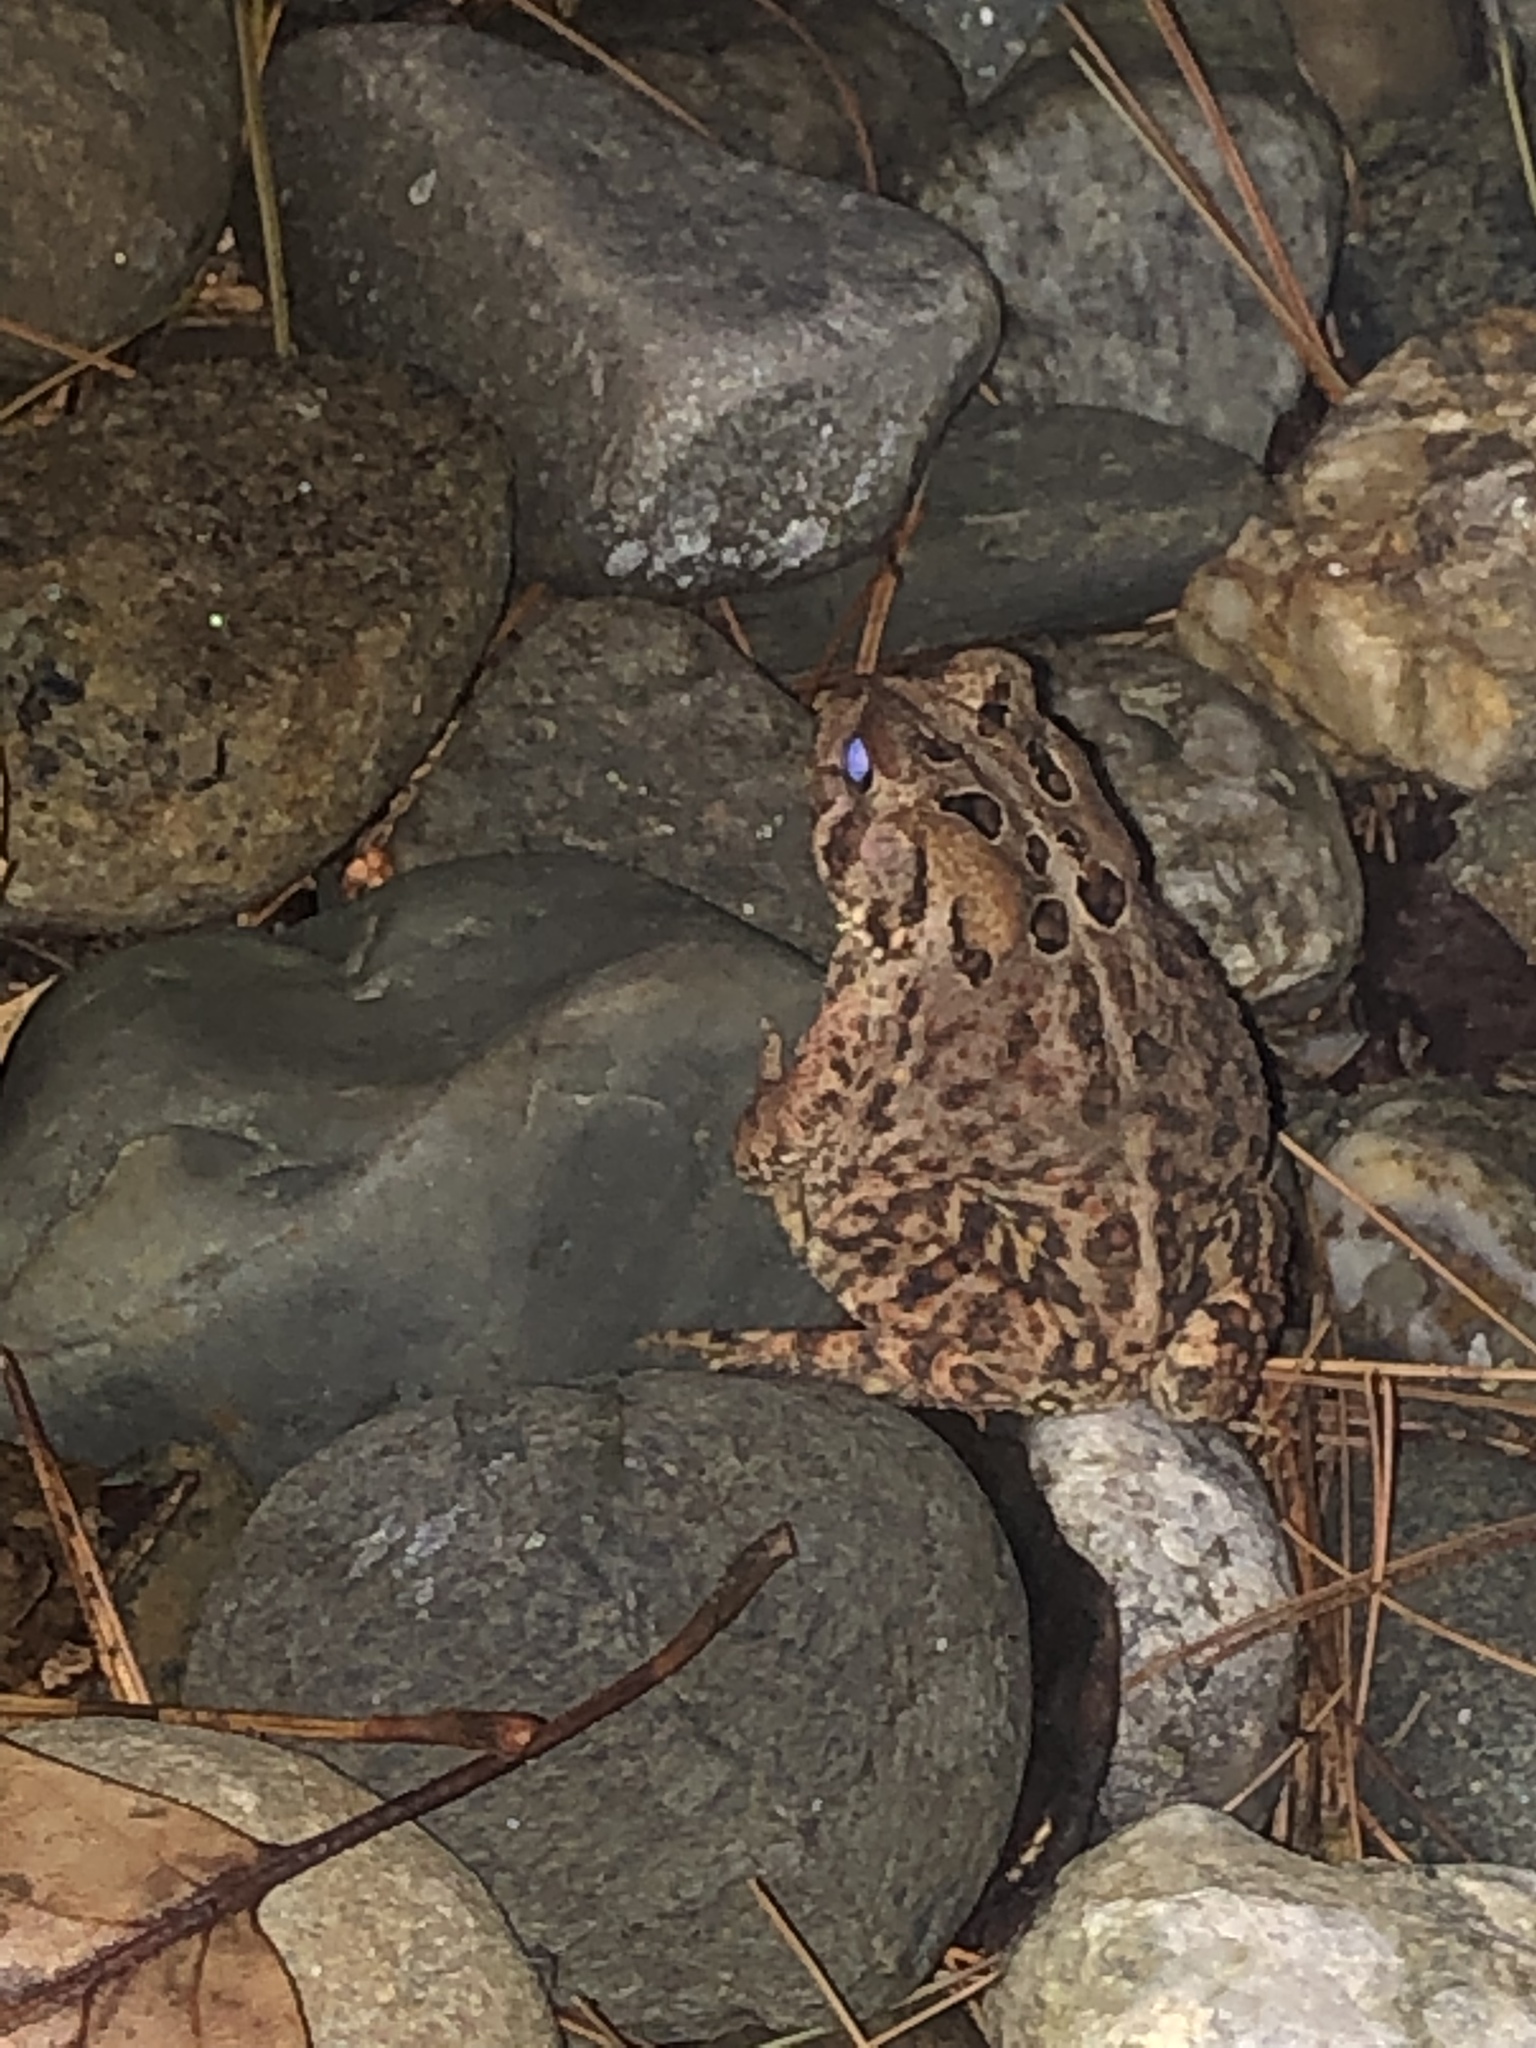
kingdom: Animalia
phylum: Chordata
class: Amphibia
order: Anura
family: Bufonidae
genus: Anaxyrus
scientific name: Anaxyrus americanus
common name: American toad
